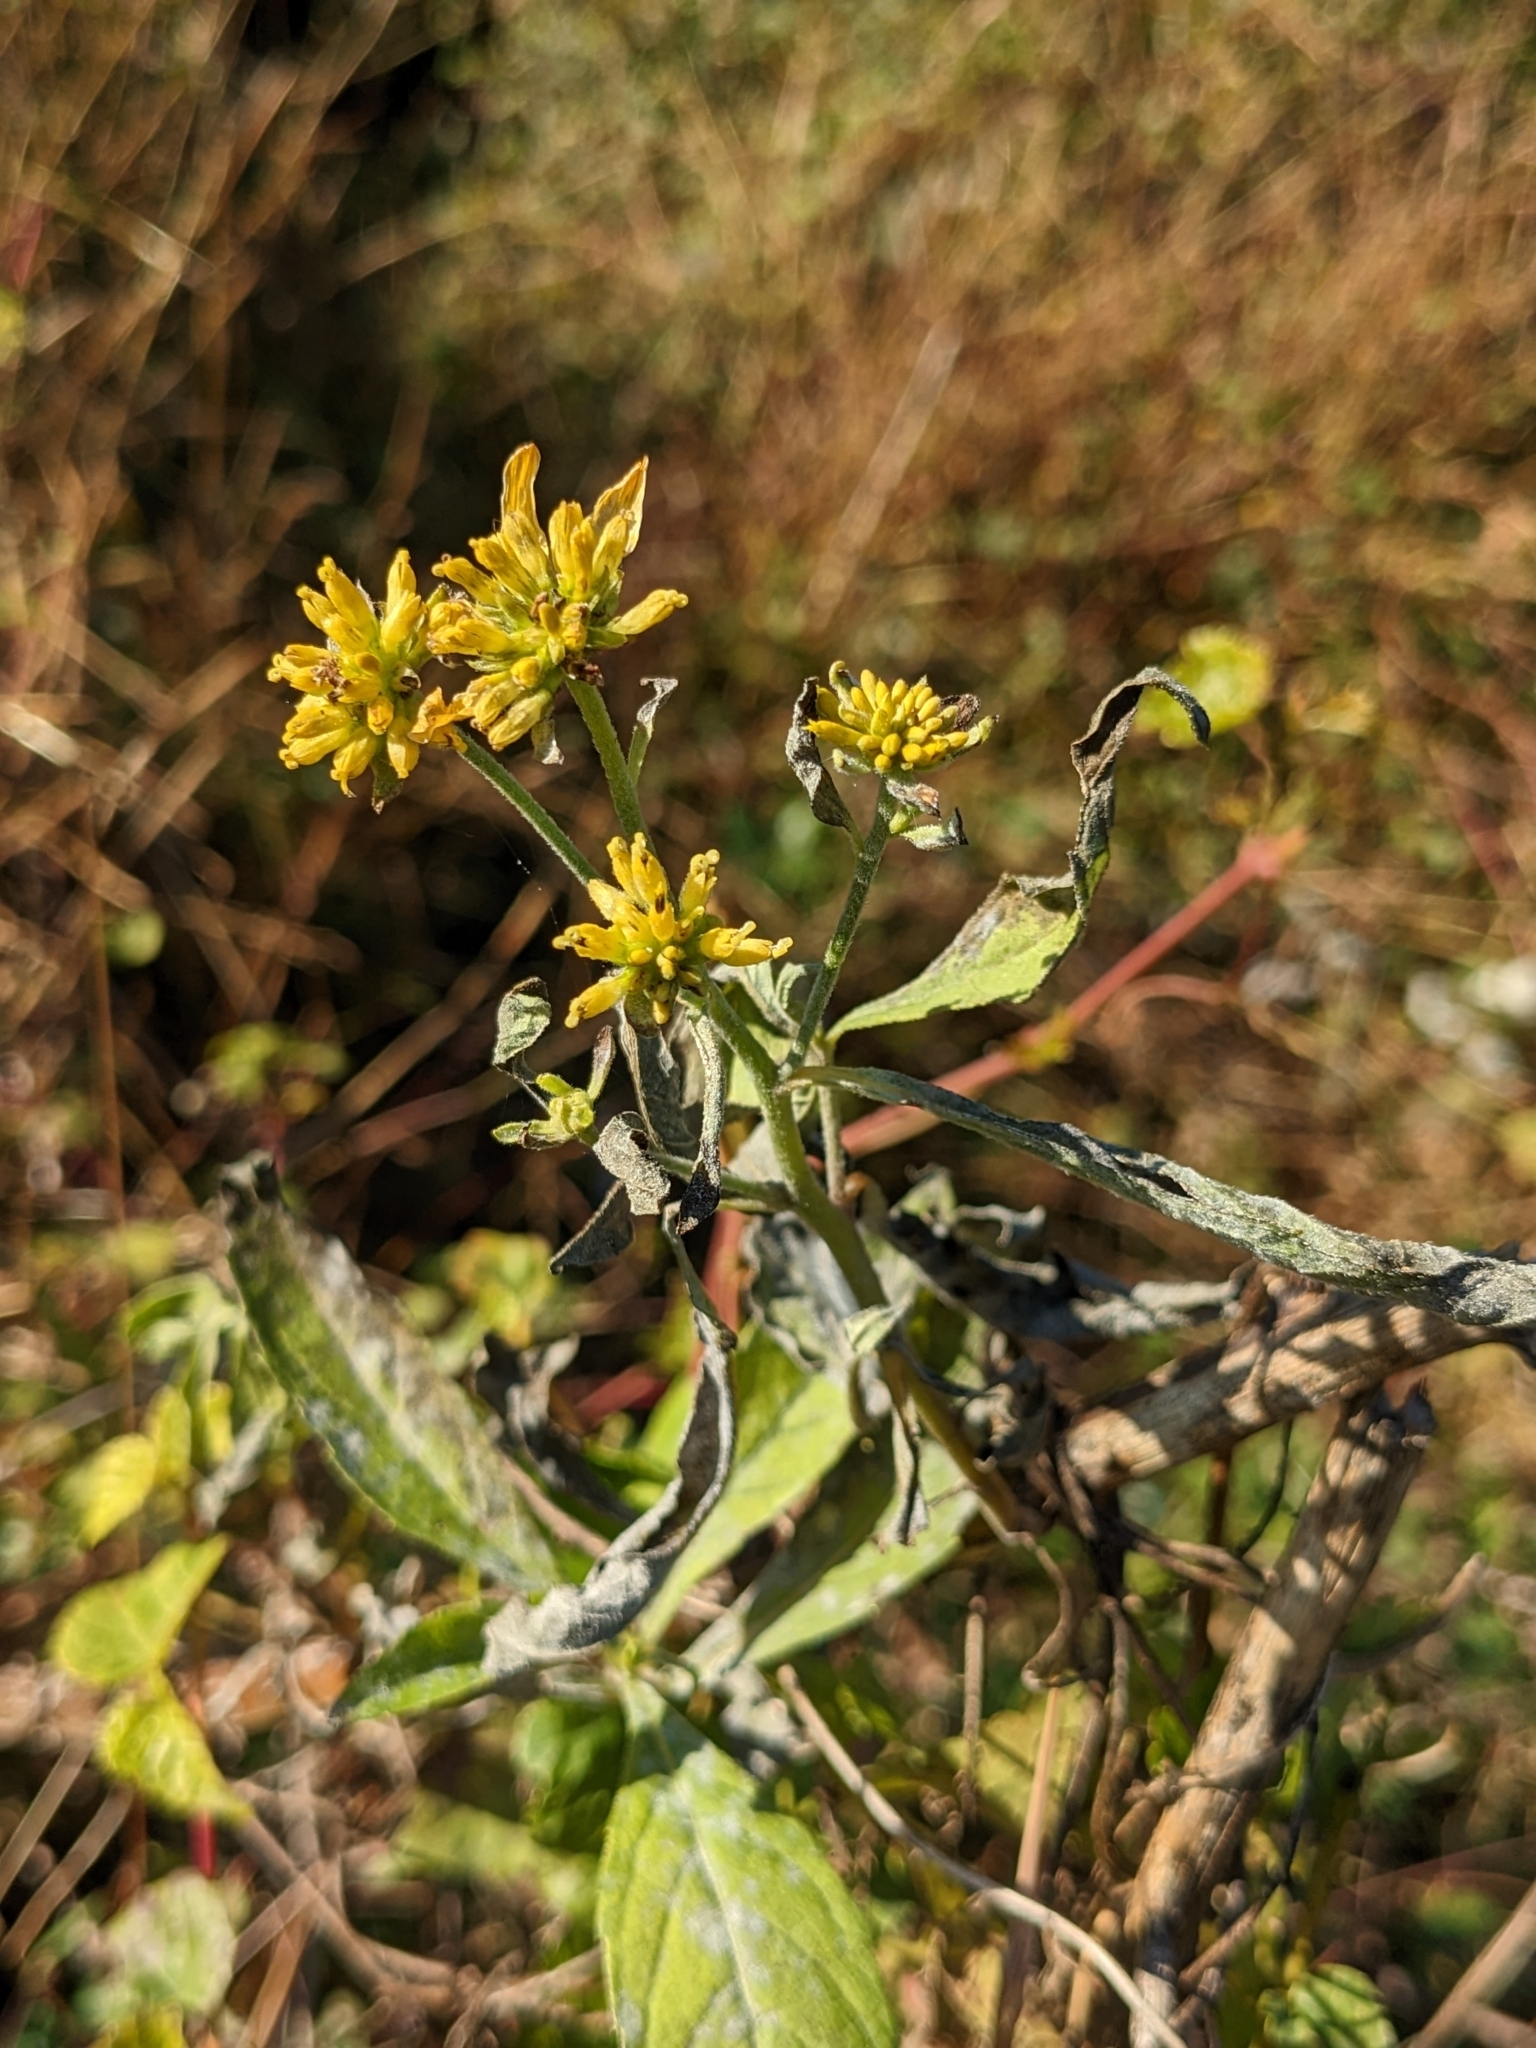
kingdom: Plantae
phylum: Tracheophyta
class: Magnoliopsida
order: Asterales
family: Asteraceae
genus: Verbesina
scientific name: Verbesina alternifolia
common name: Wingstem
